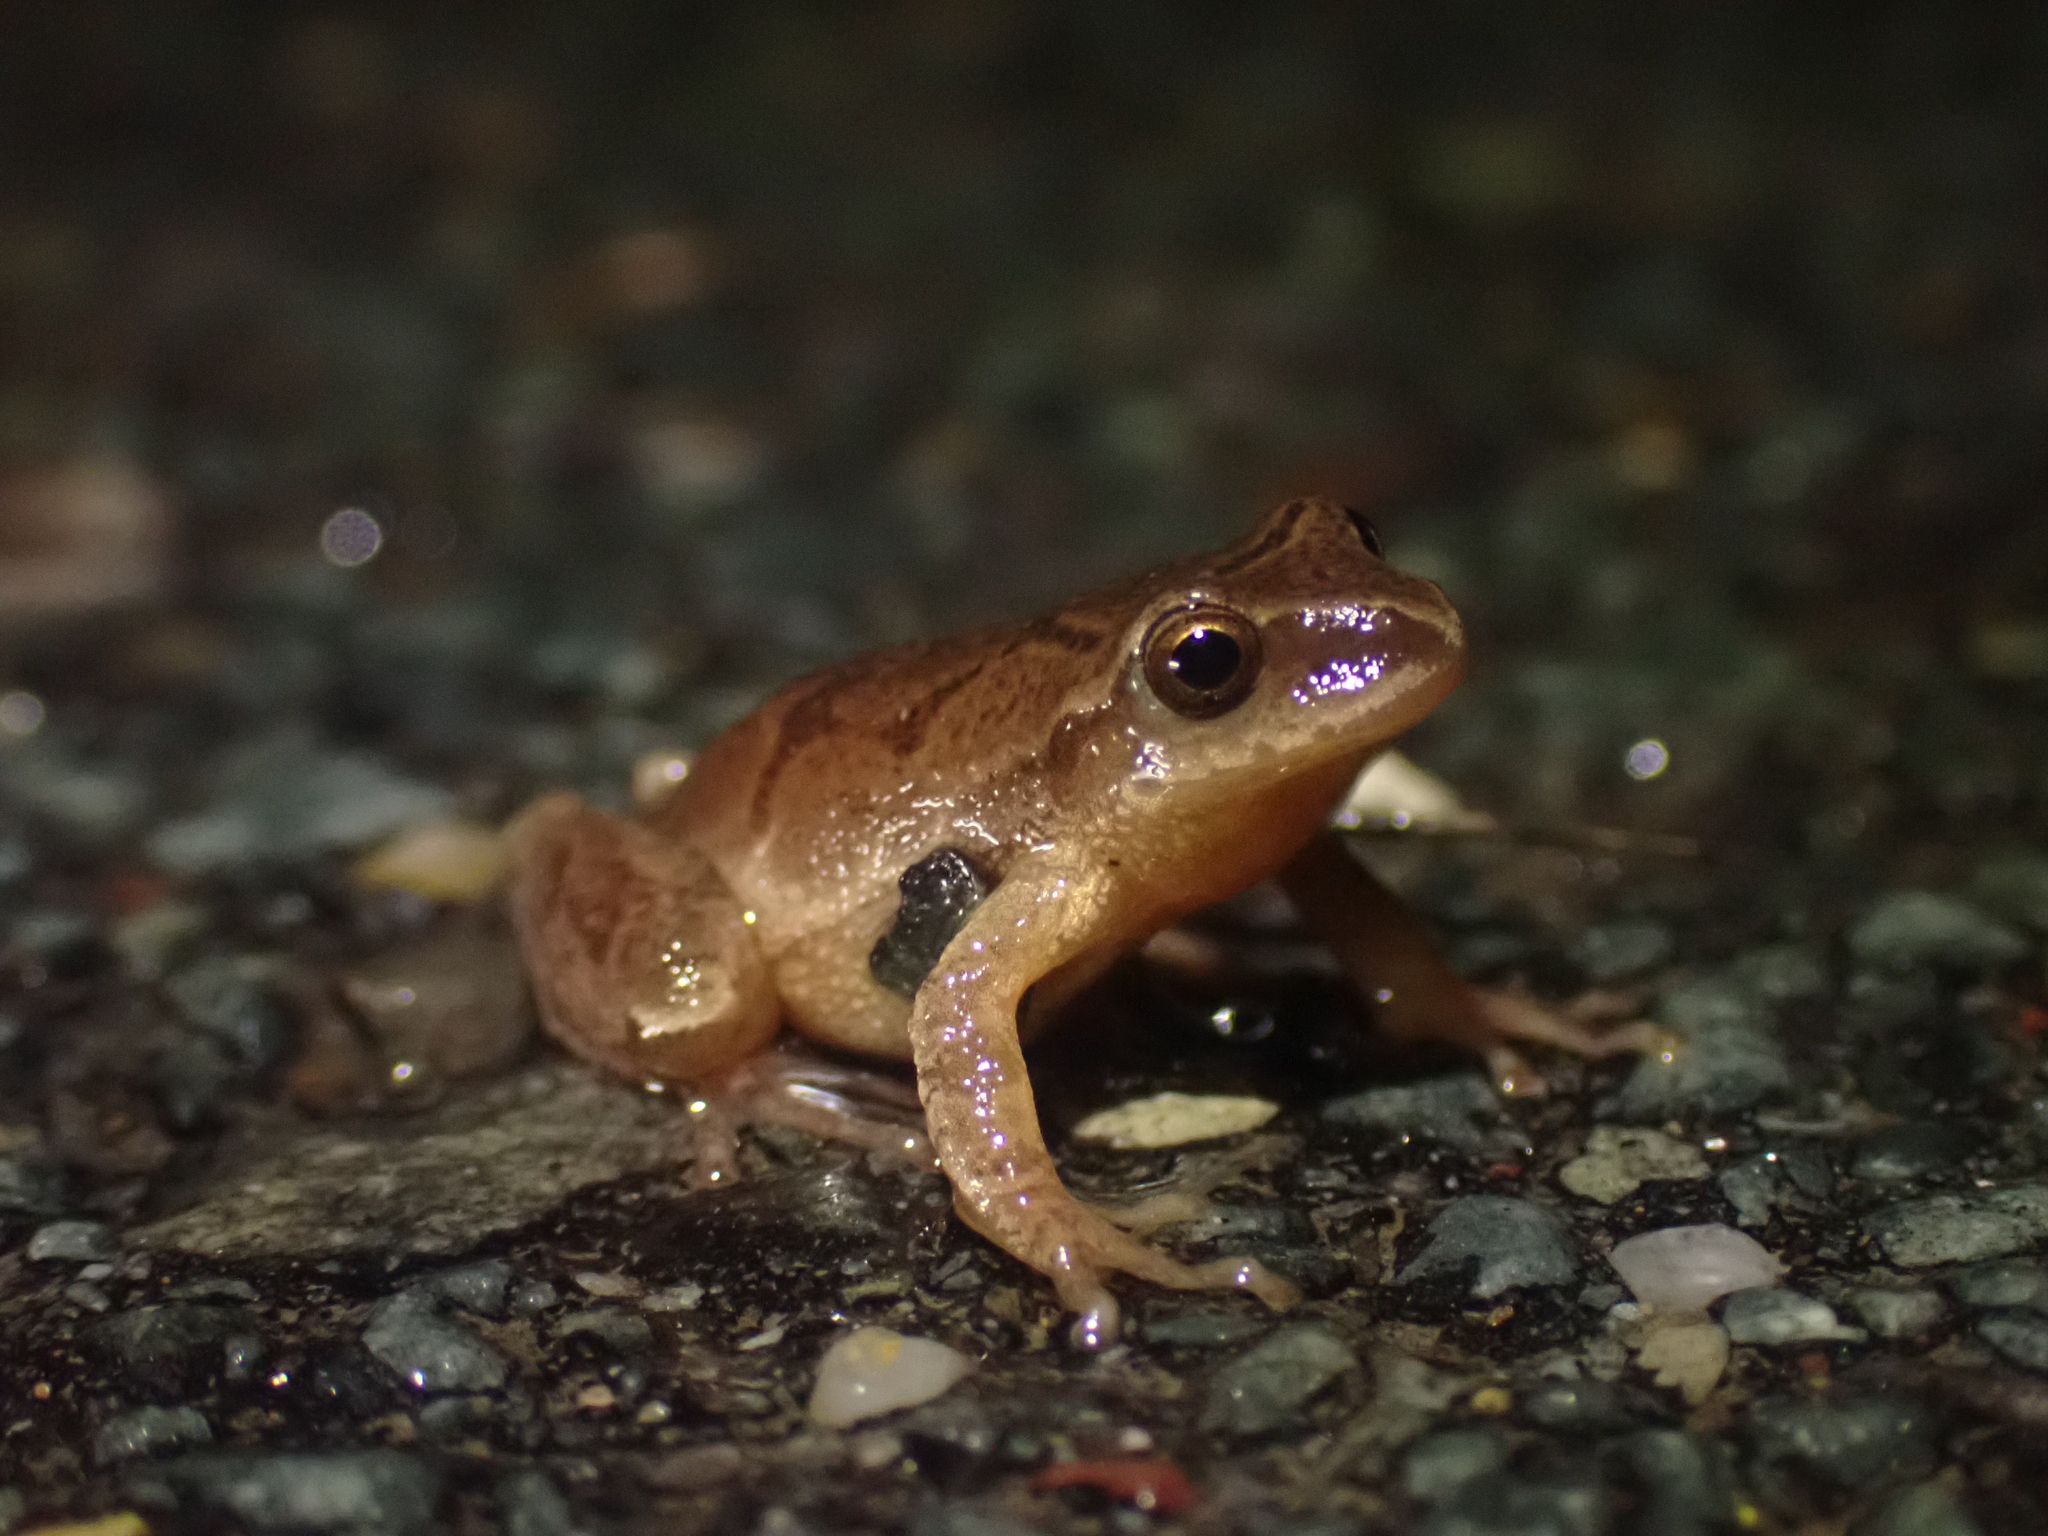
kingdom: Animalia
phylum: Chordata
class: Amphibia
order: Anura
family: Hylidae
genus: Pseudacris
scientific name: Pseudacris crucifer
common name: Spring peeper
